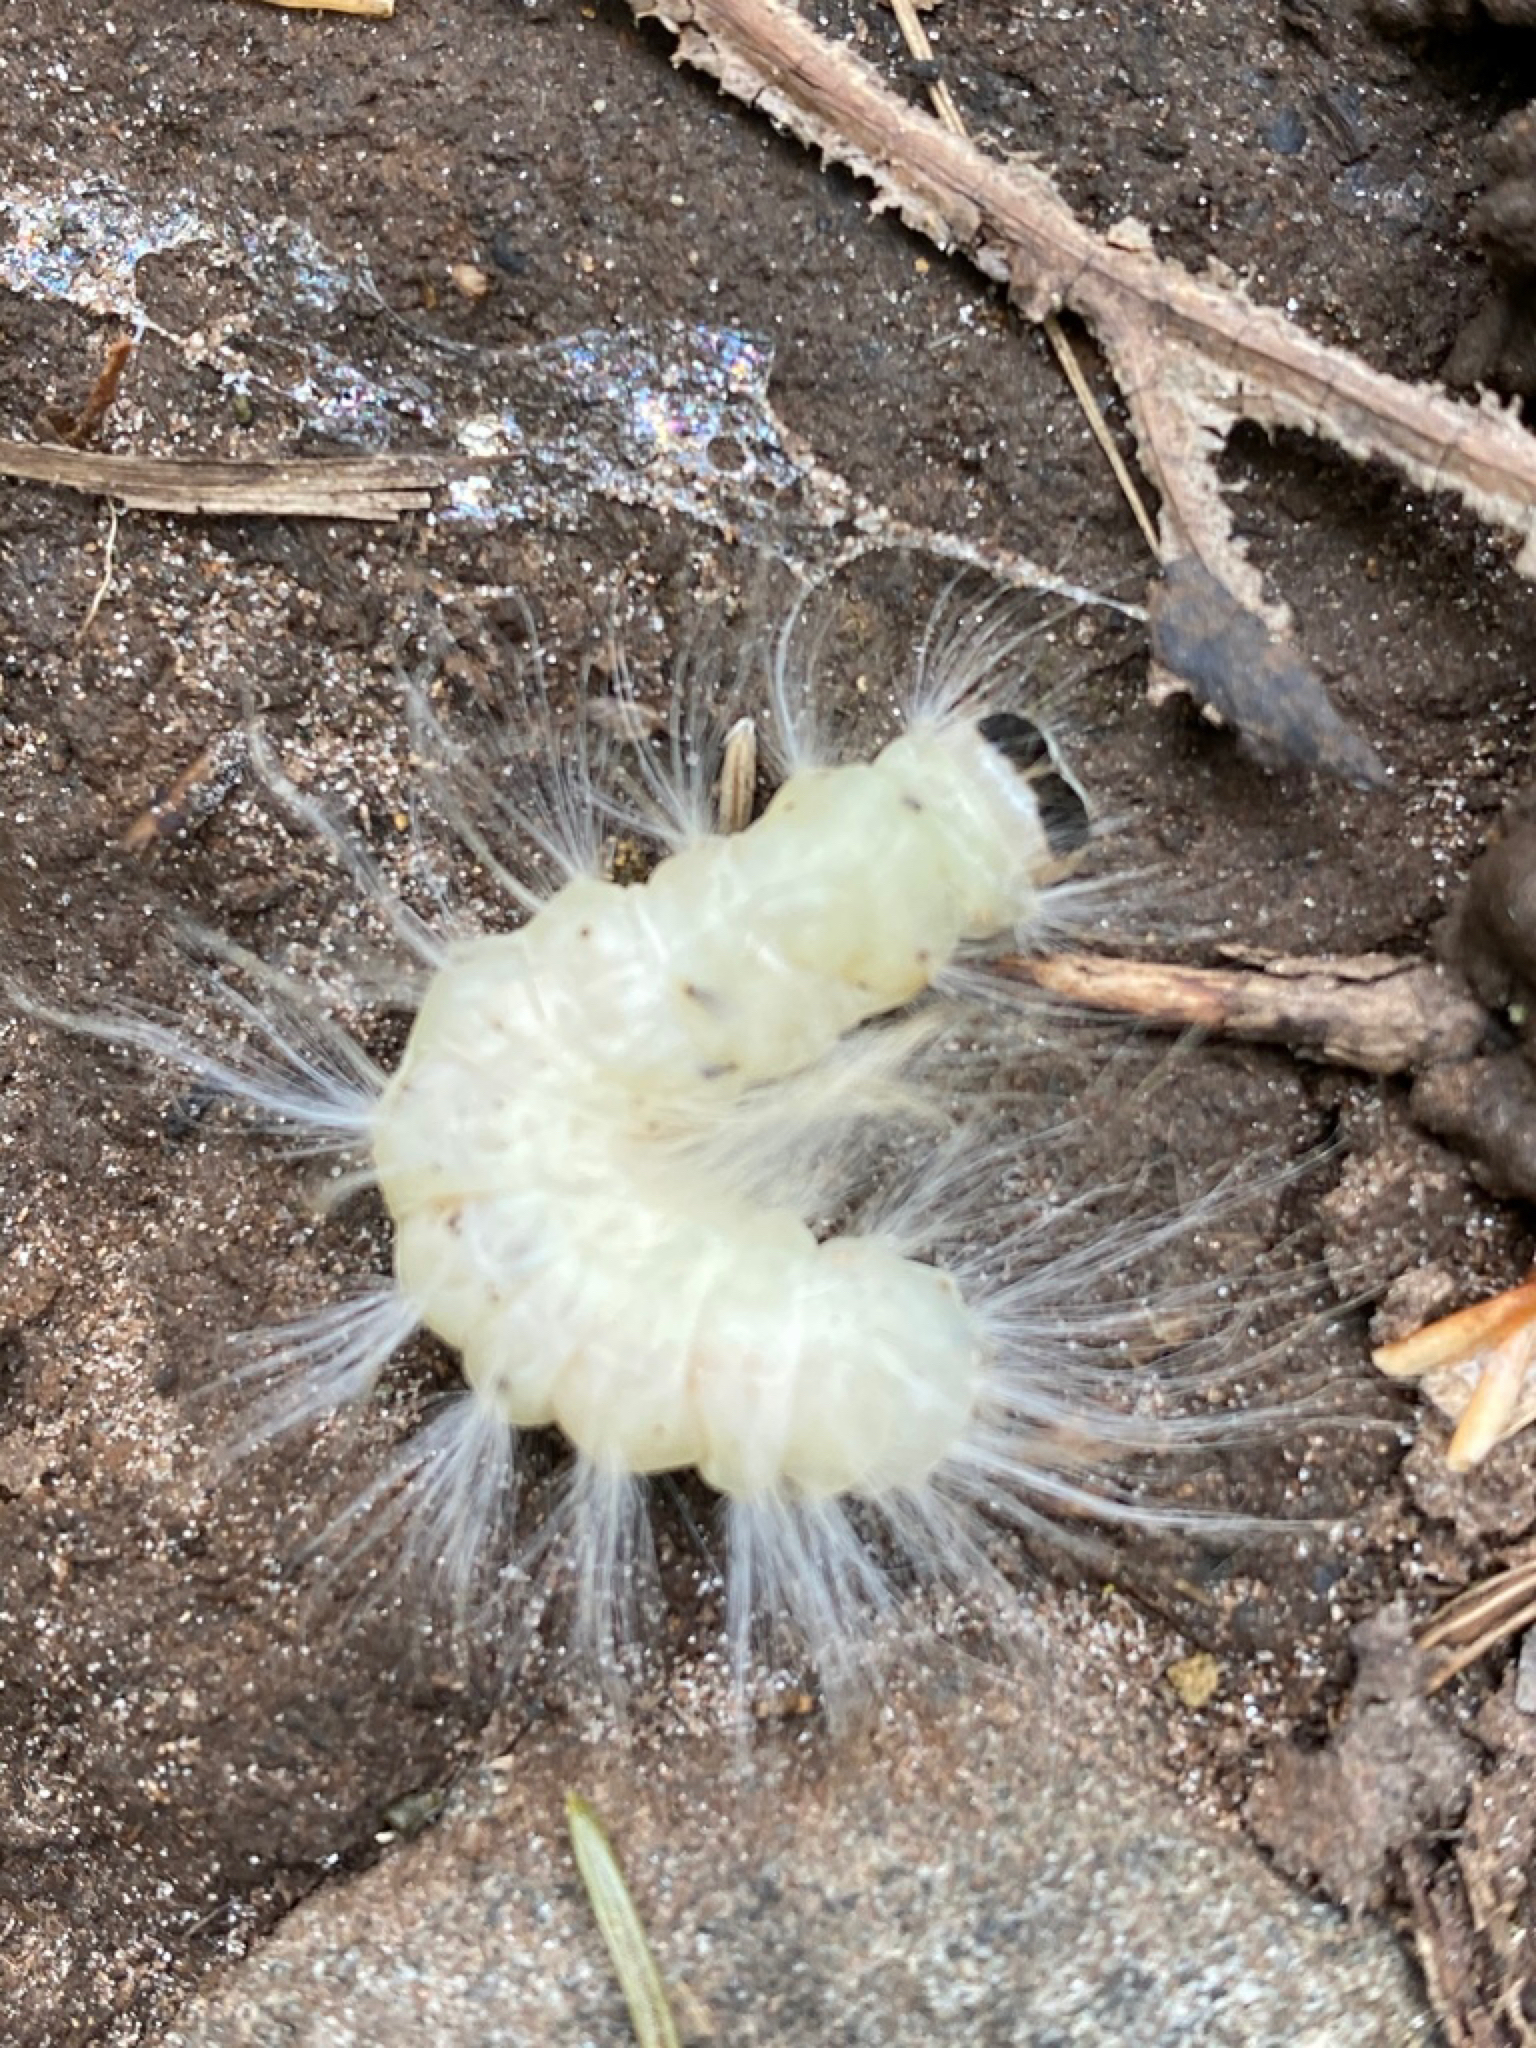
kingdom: Animalia
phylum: Arthropoda
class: Insecta
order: Lepidoptera
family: Noctuidae
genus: Charadra
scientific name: Charadra deridens
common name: Marbled tuffet
